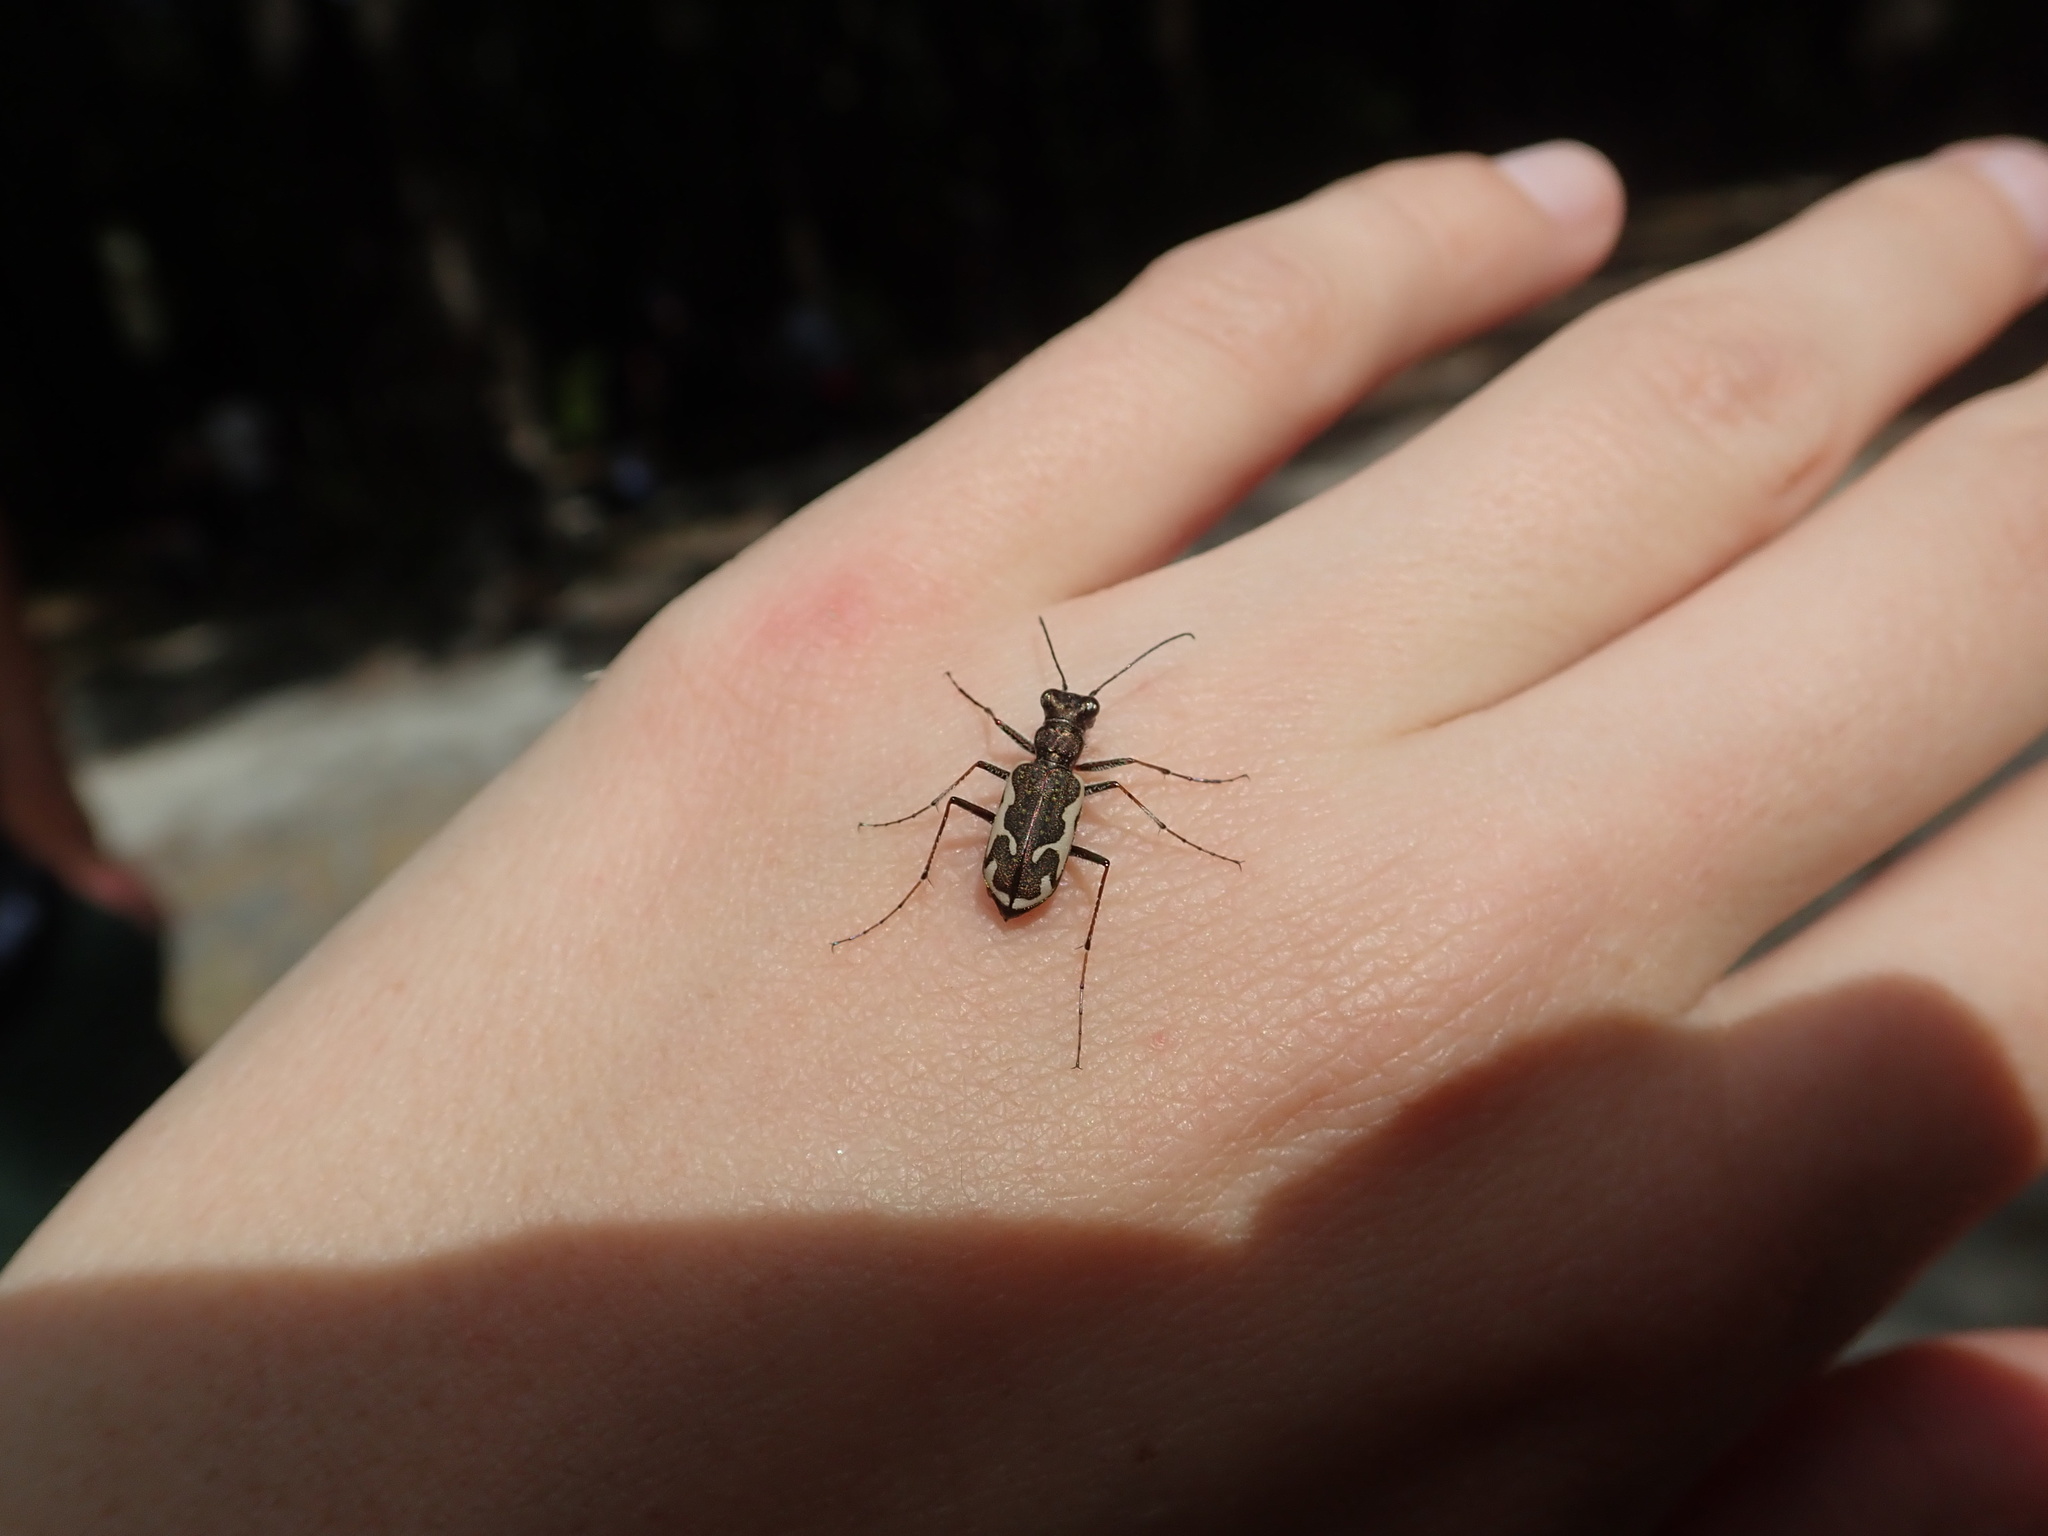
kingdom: Animalia
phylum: Arthropoda
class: Insecta
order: Coleoptera
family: Carabidae
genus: Neocicindela
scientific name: Neocicindela tuberculata
